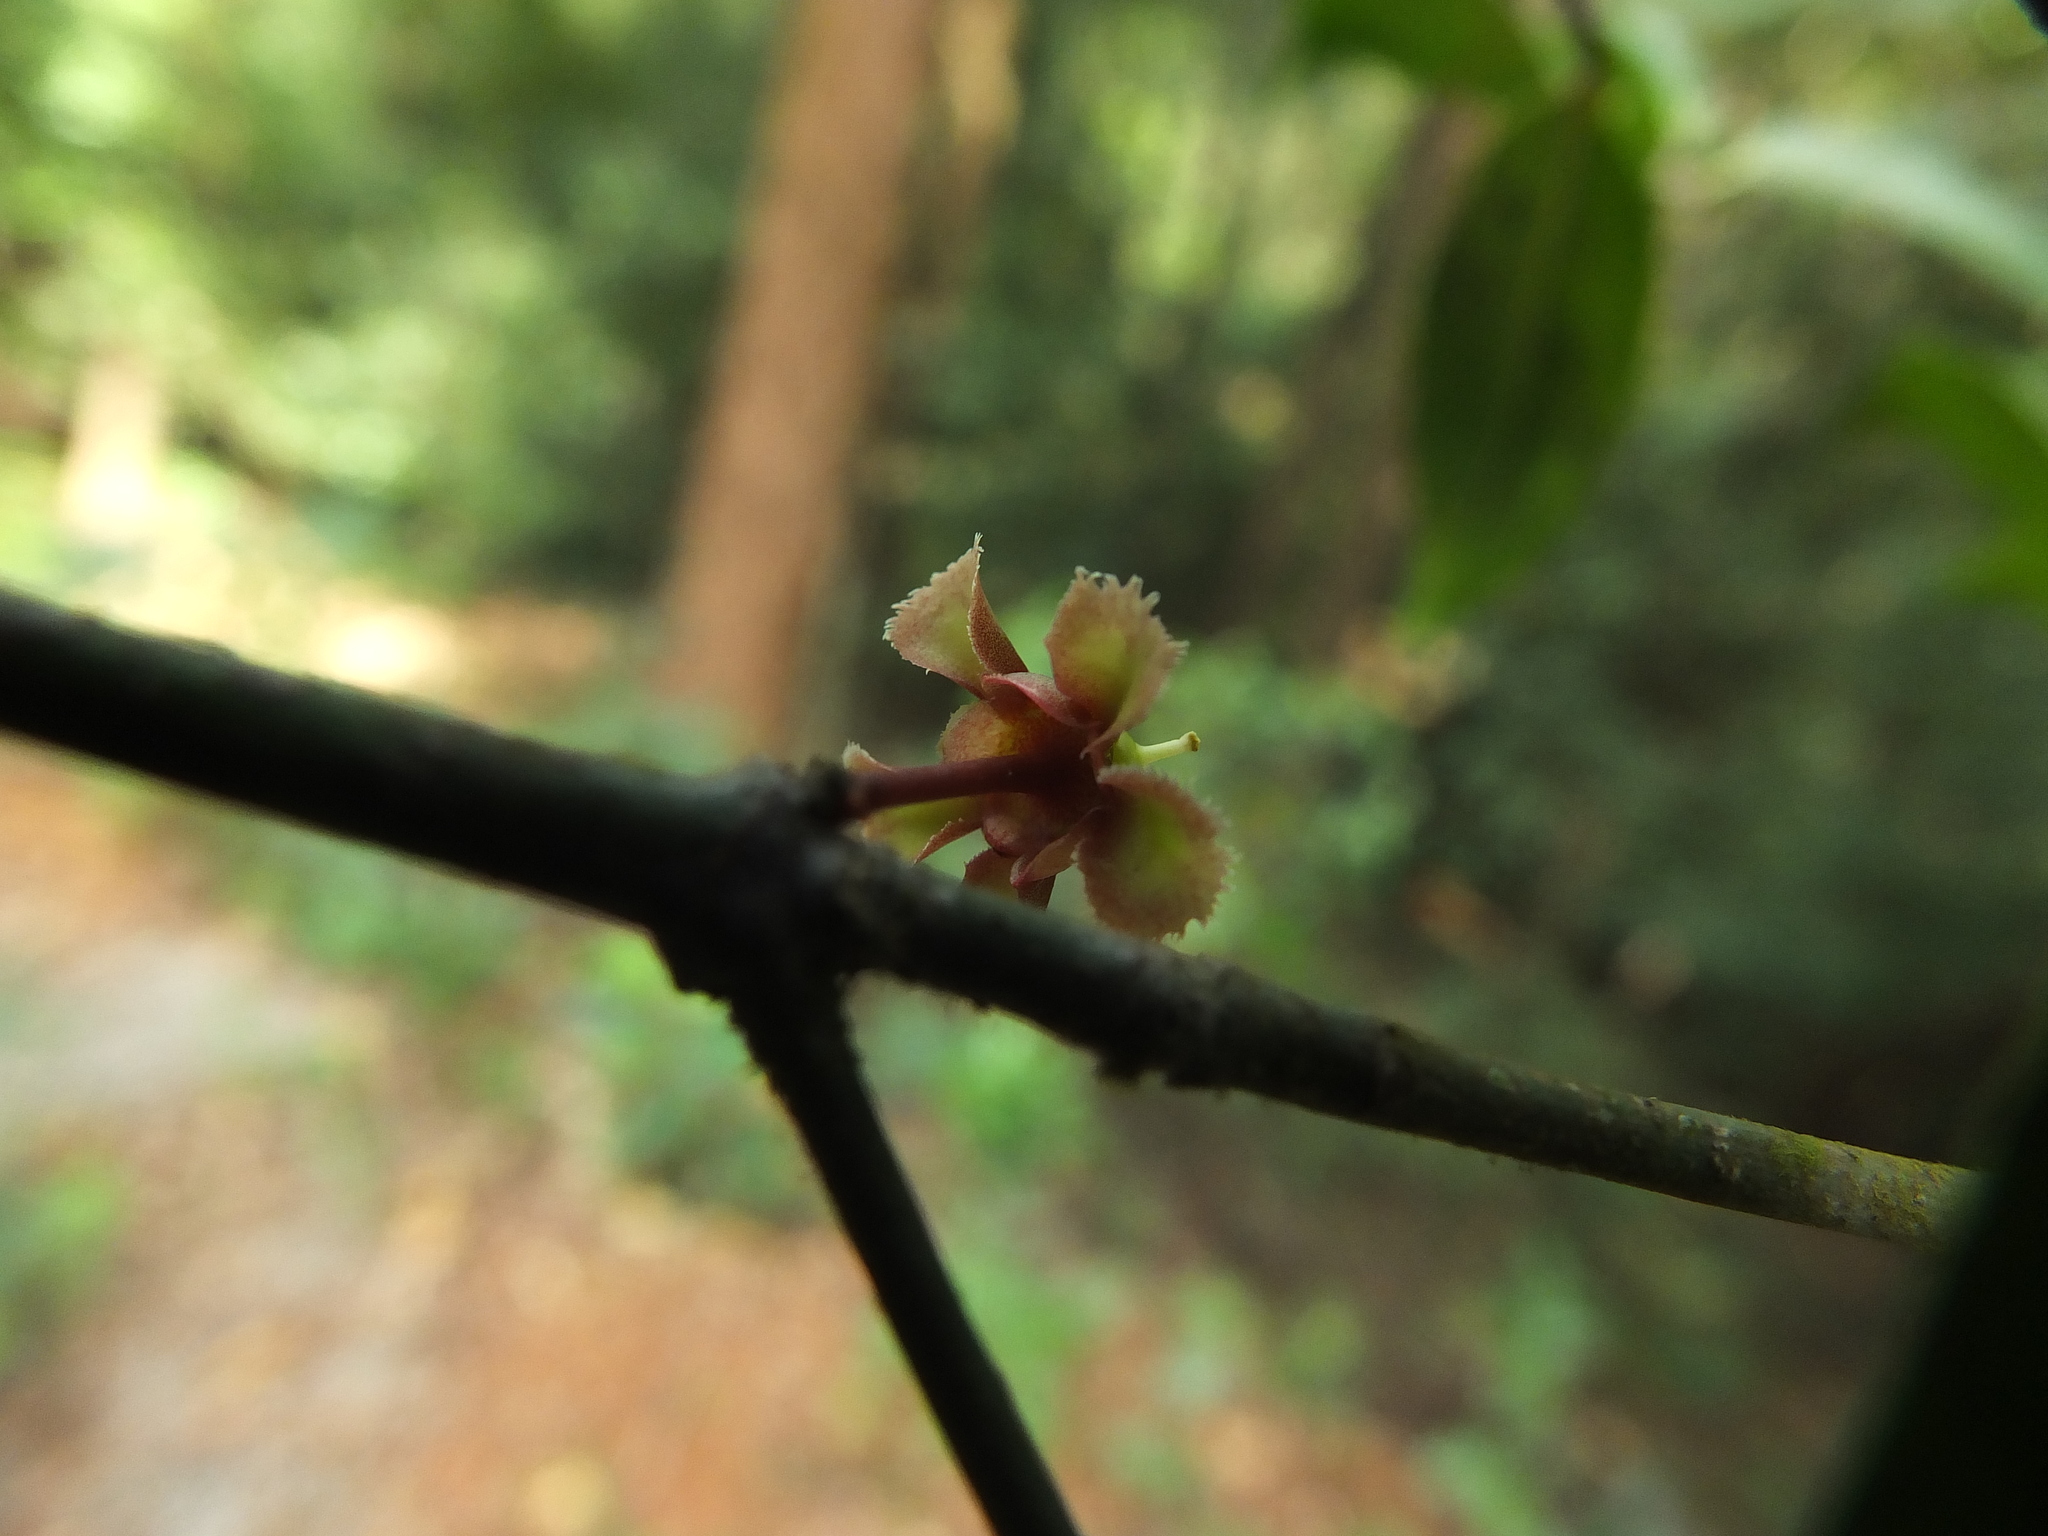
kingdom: Plantae
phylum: Tracheophyta
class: Magnoliopsida
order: Celastrales
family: Celastraceae
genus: Euonymus
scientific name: Euonymus indicus
